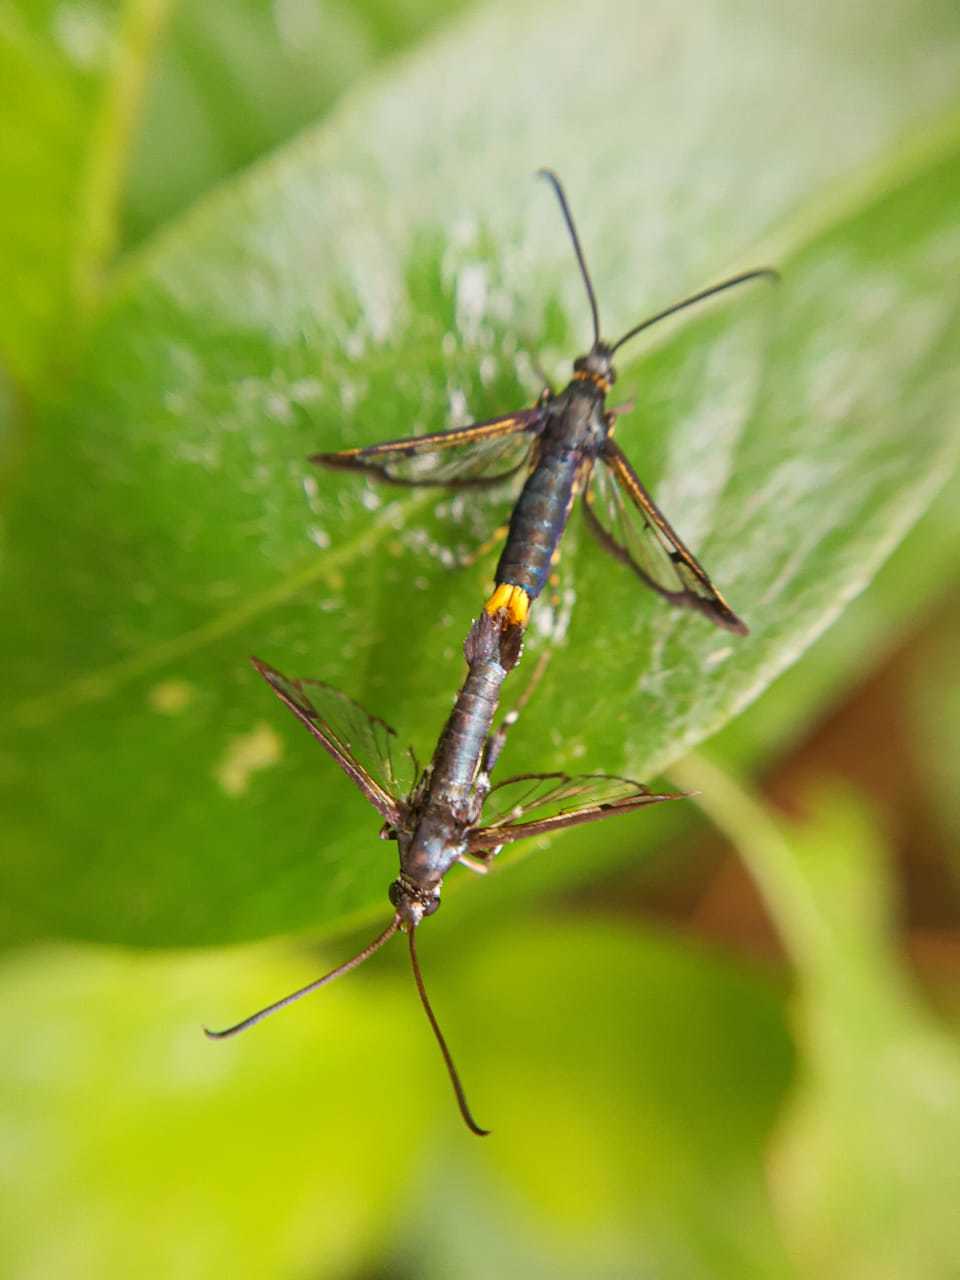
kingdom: Animalia
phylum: Arthropoda
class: Insecta
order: Lepidoptera
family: Sesiidae
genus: Carmenta
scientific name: Carmenta fulvopyga
